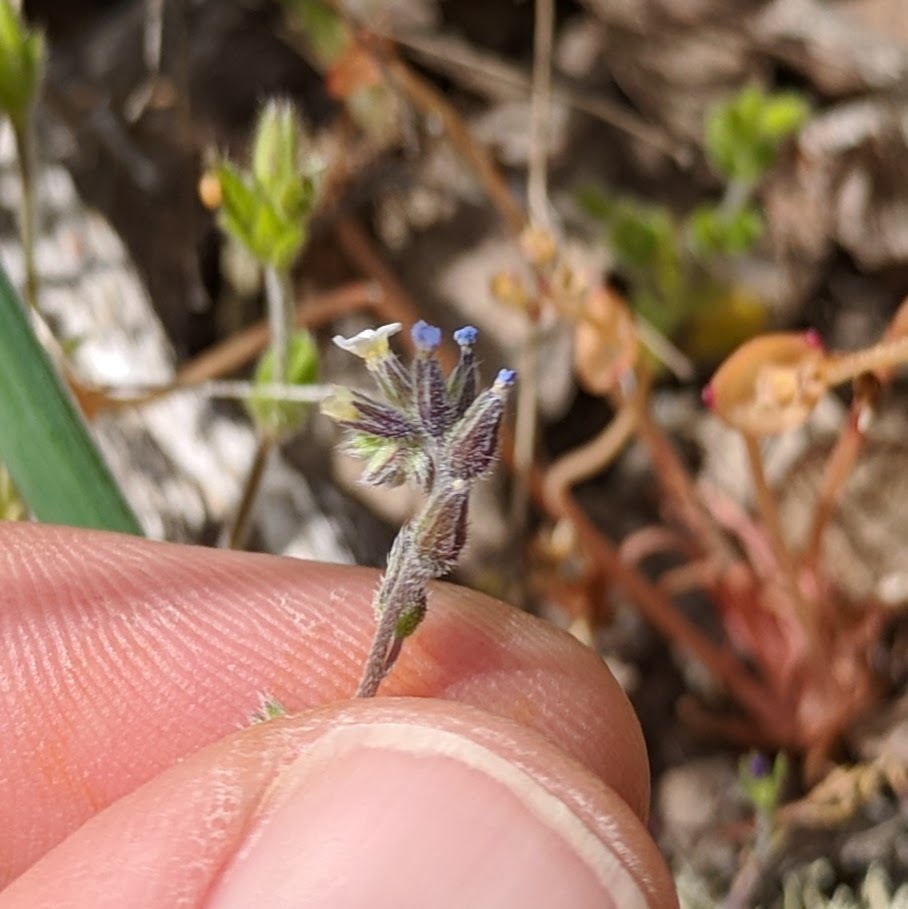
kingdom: Plantae
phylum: Tracheophyta
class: Magnoliopsida
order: Boraginales
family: Boraginaceae
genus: Myosotis
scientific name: Myosotis discolor
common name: Changing forget-me-not
